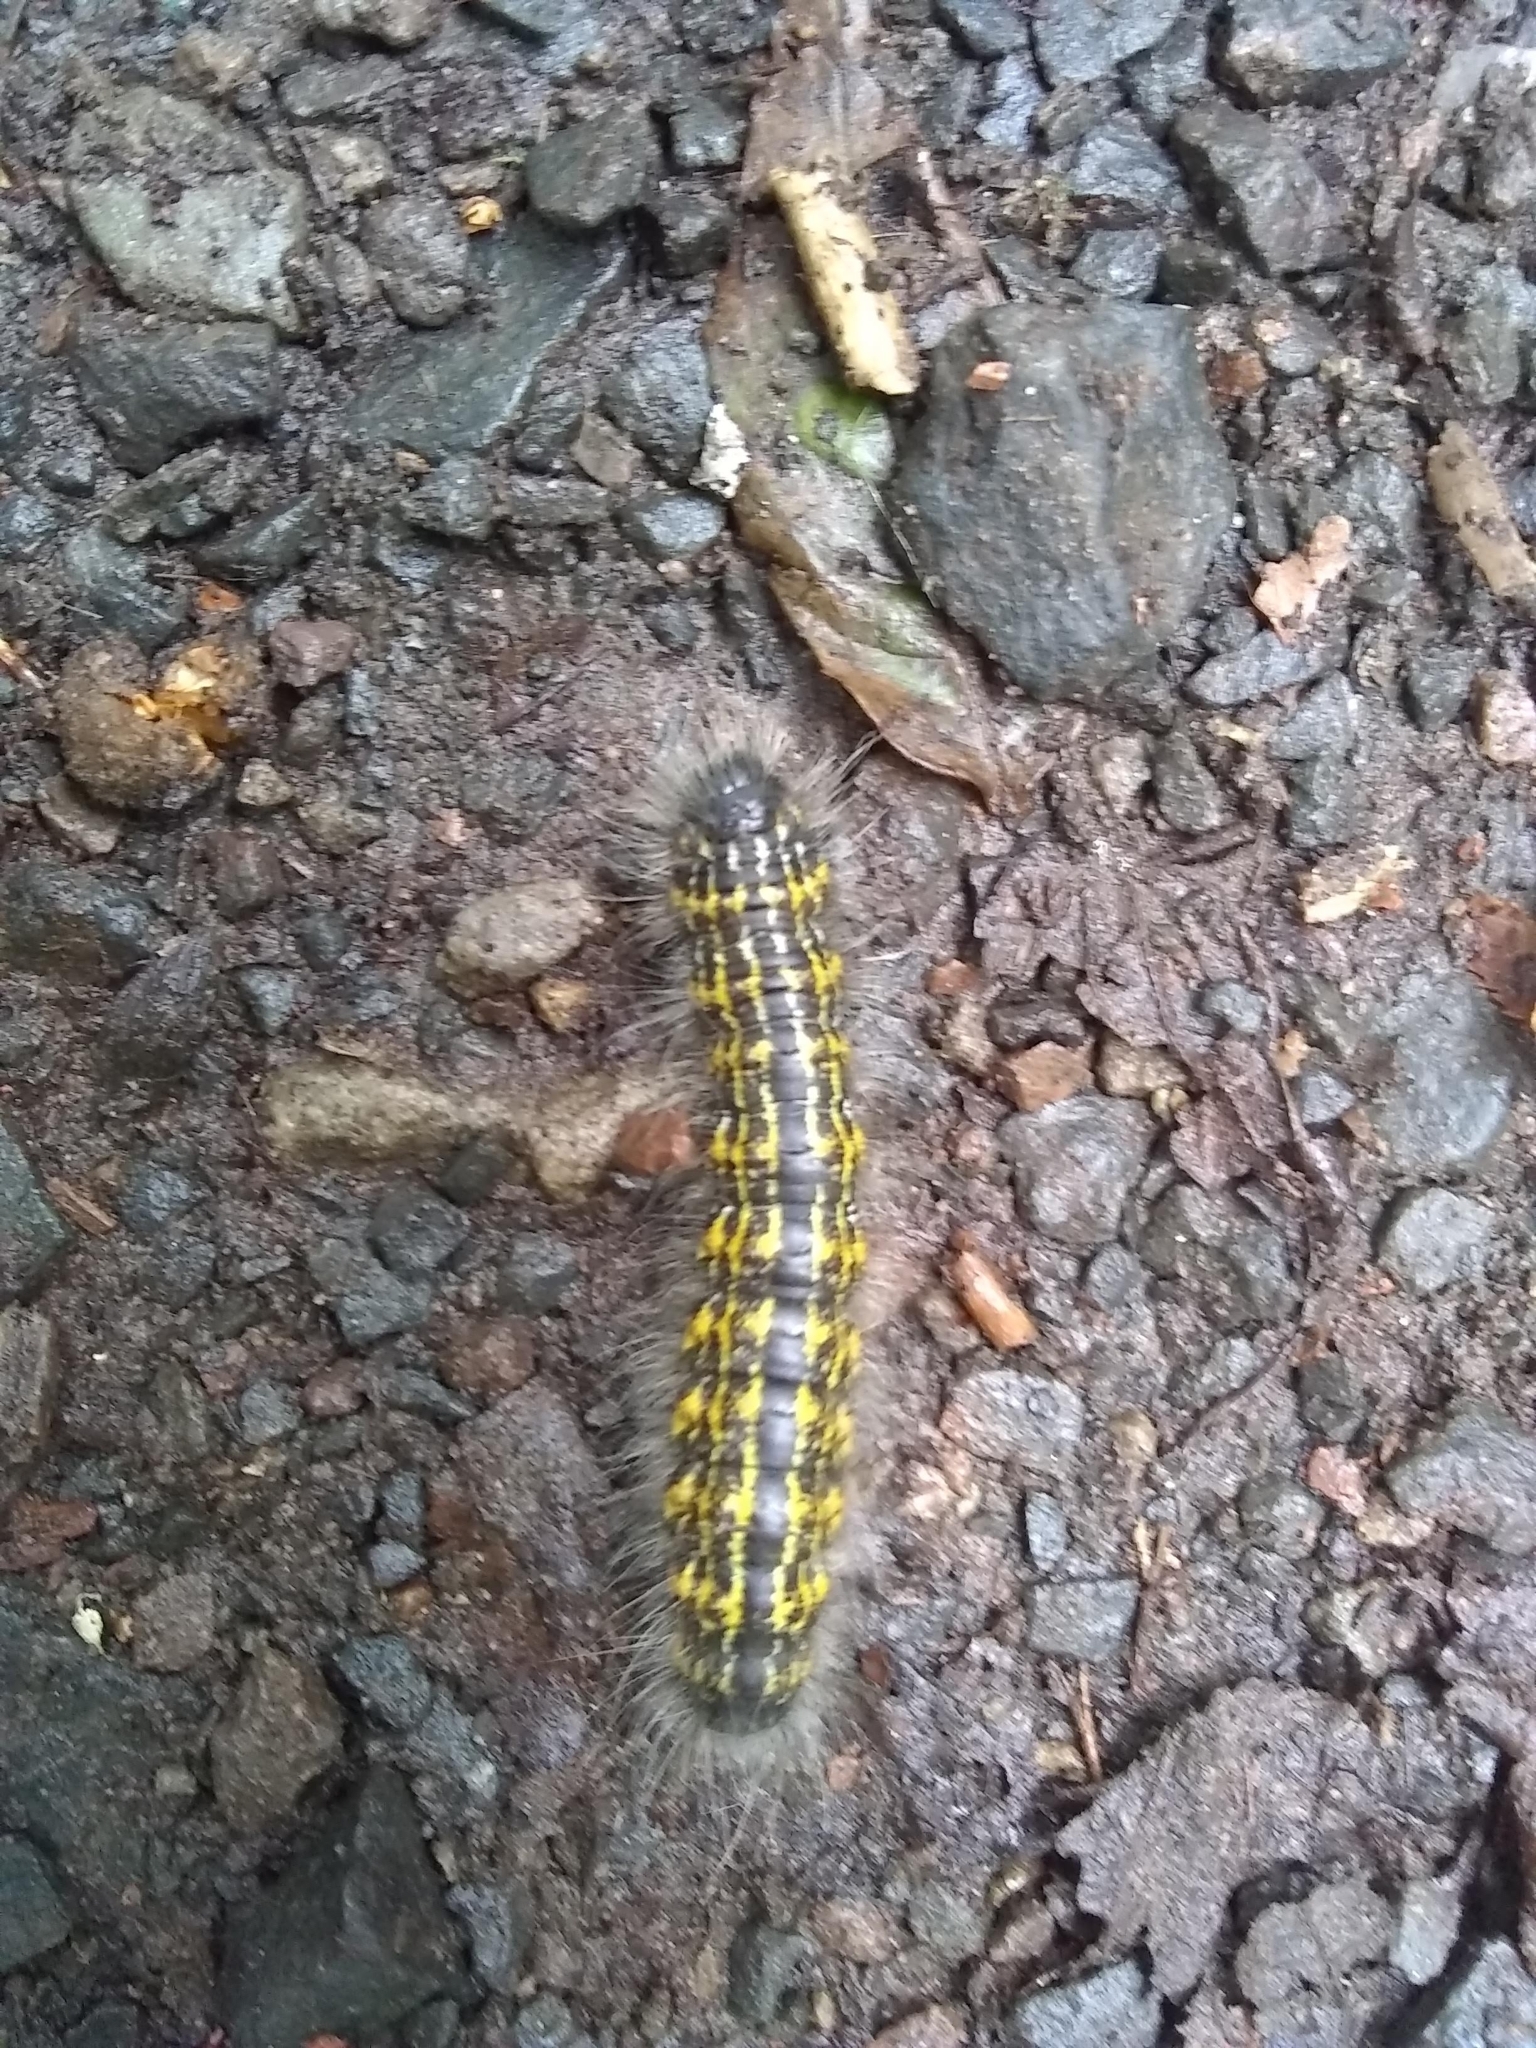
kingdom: Animalia
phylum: Arthropoda
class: Insecta
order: Lepidoptera
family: Notodontidae
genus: Phalera
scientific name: Phalera bucephala
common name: Buff-tip
